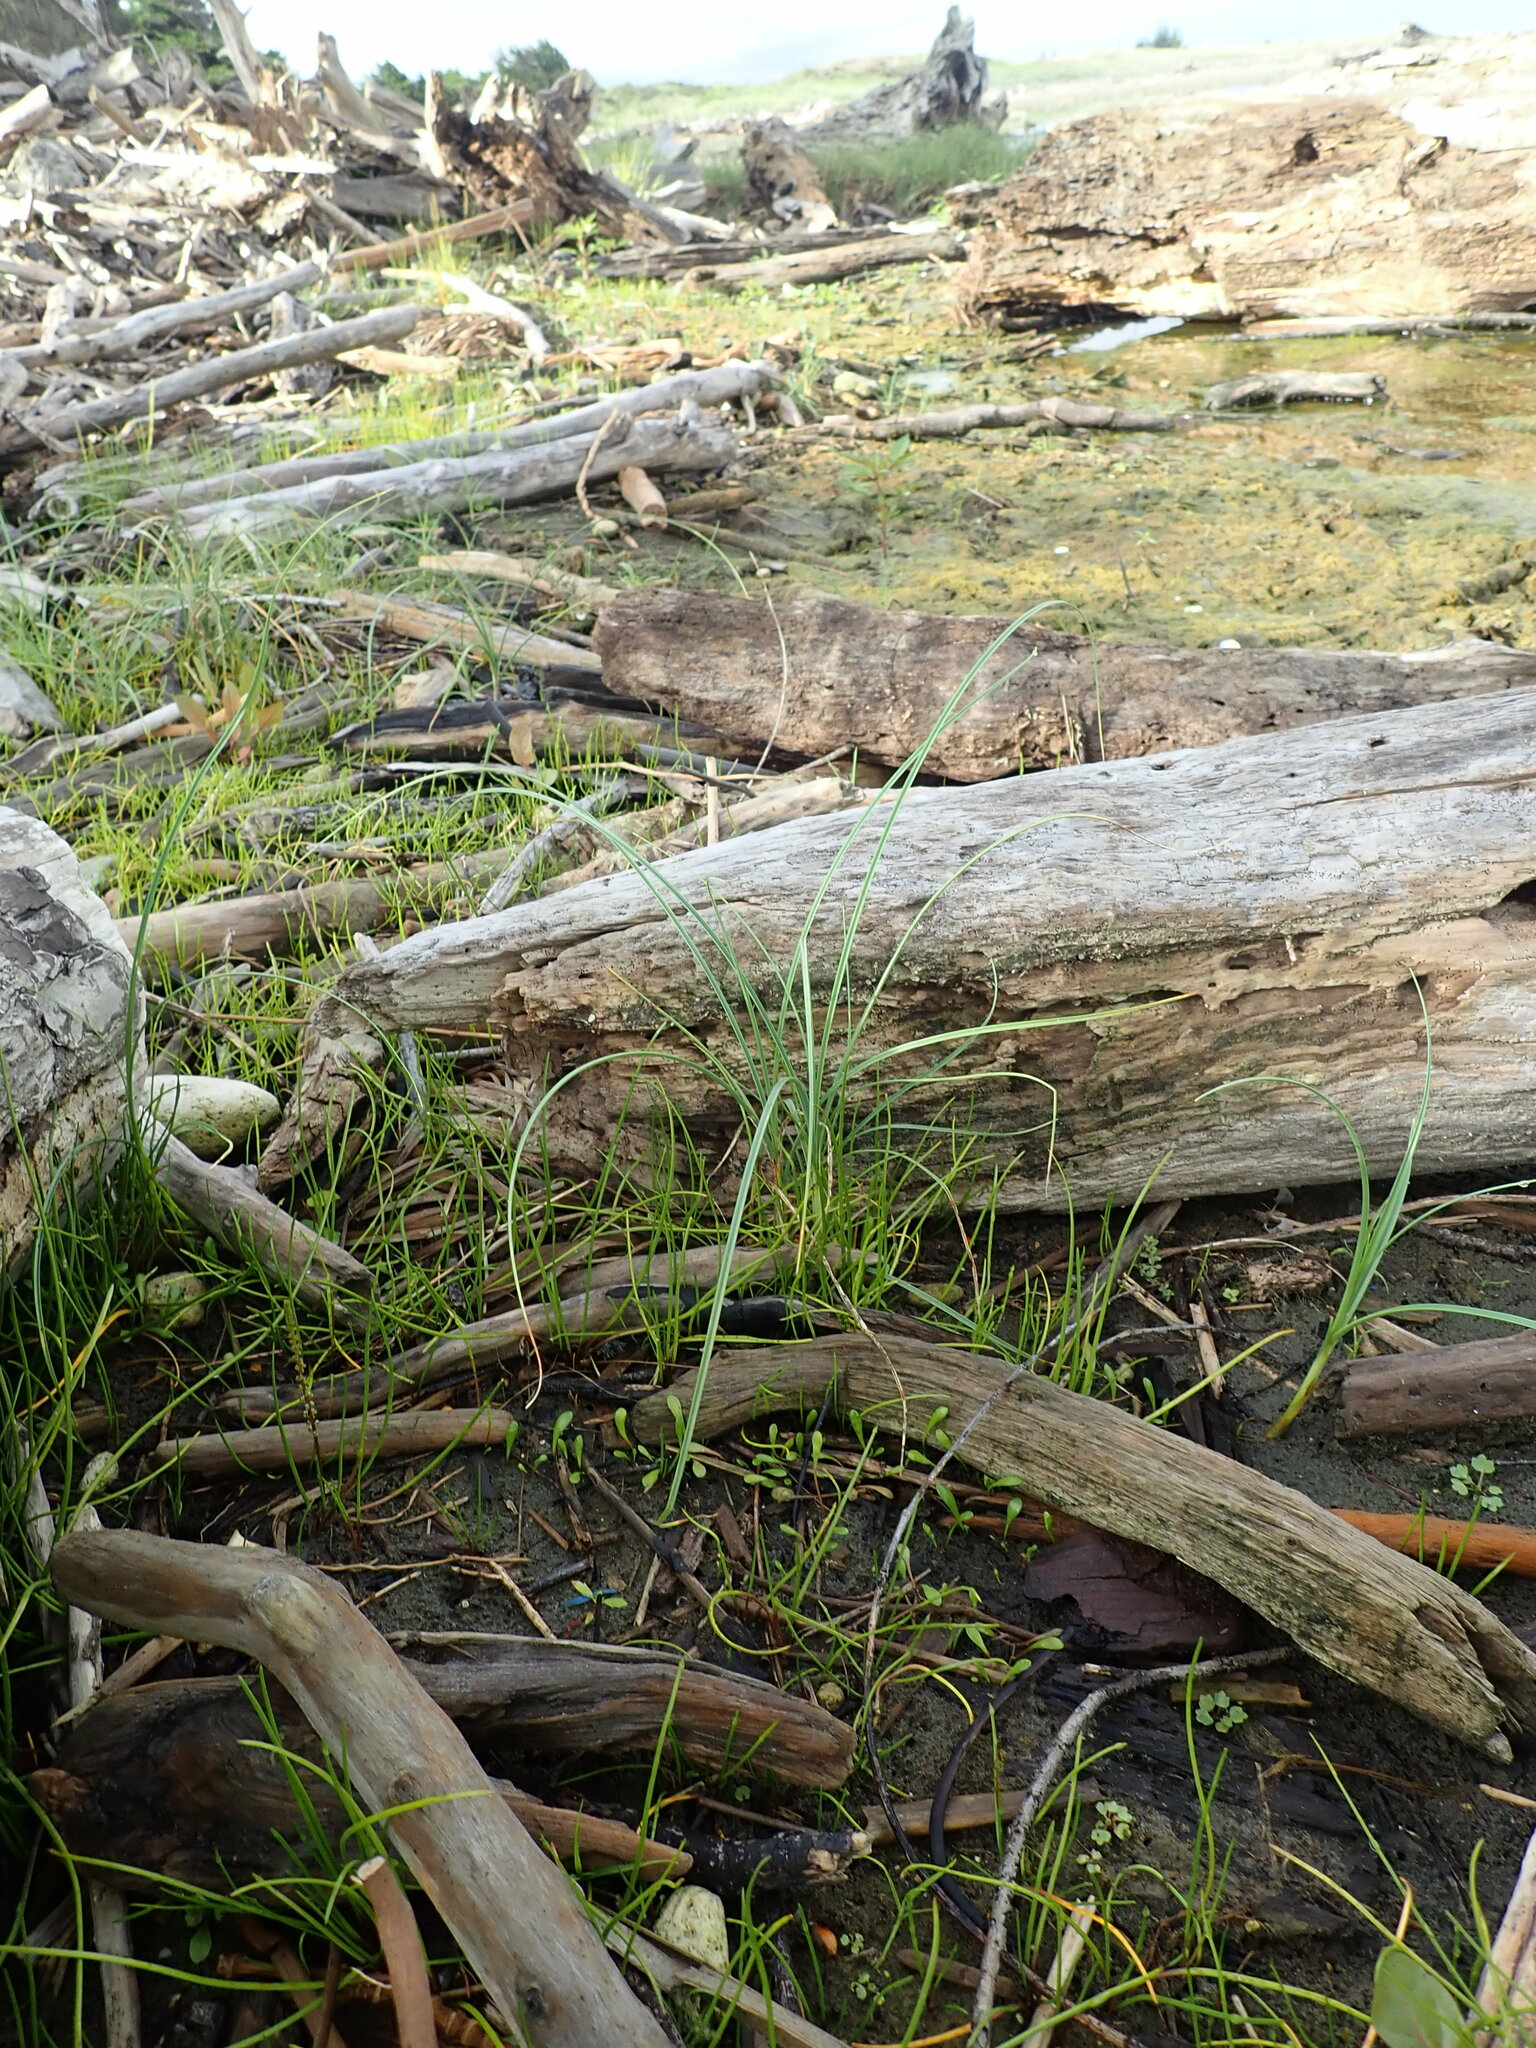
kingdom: Plantae
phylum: Tracheophyta
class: Magnoliopsida
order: Asterales
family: Goodeniaceae
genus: Goodenia
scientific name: Goodenia radicans
